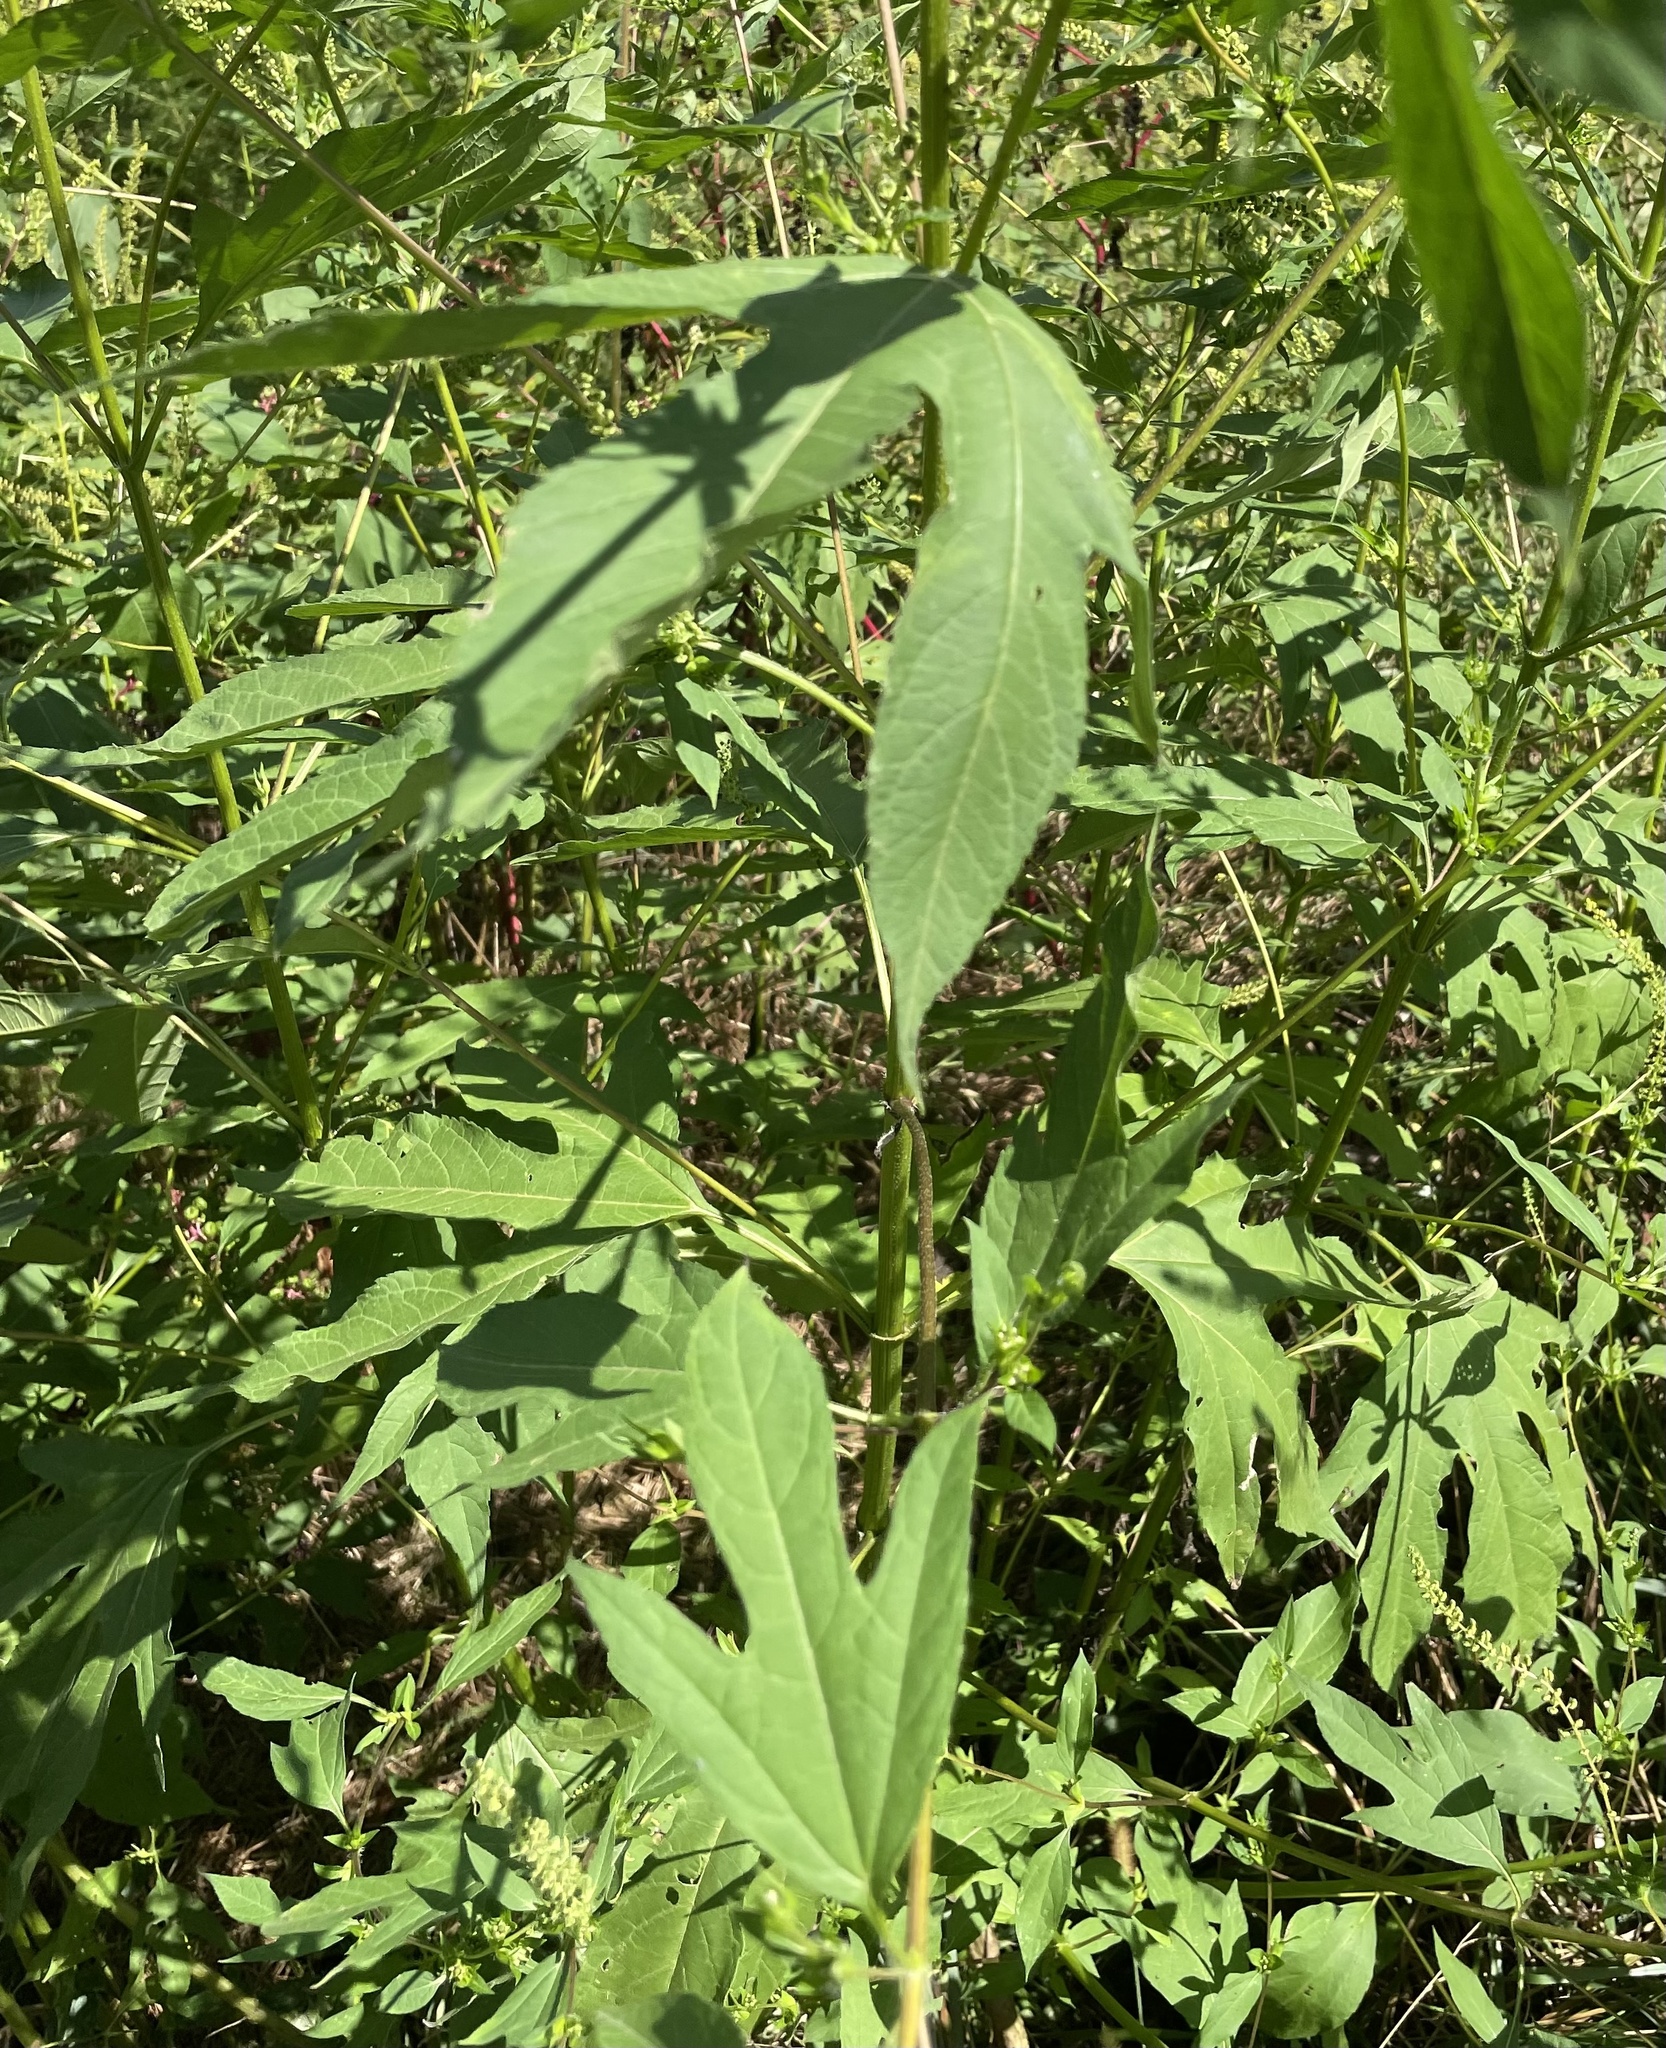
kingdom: Plantae
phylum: Tracheophyta
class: Magnoliopsida
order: Asterales
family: Asteraceae
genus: Ambrosia
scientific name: Ambrosia trifida
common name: Giant ragweed
